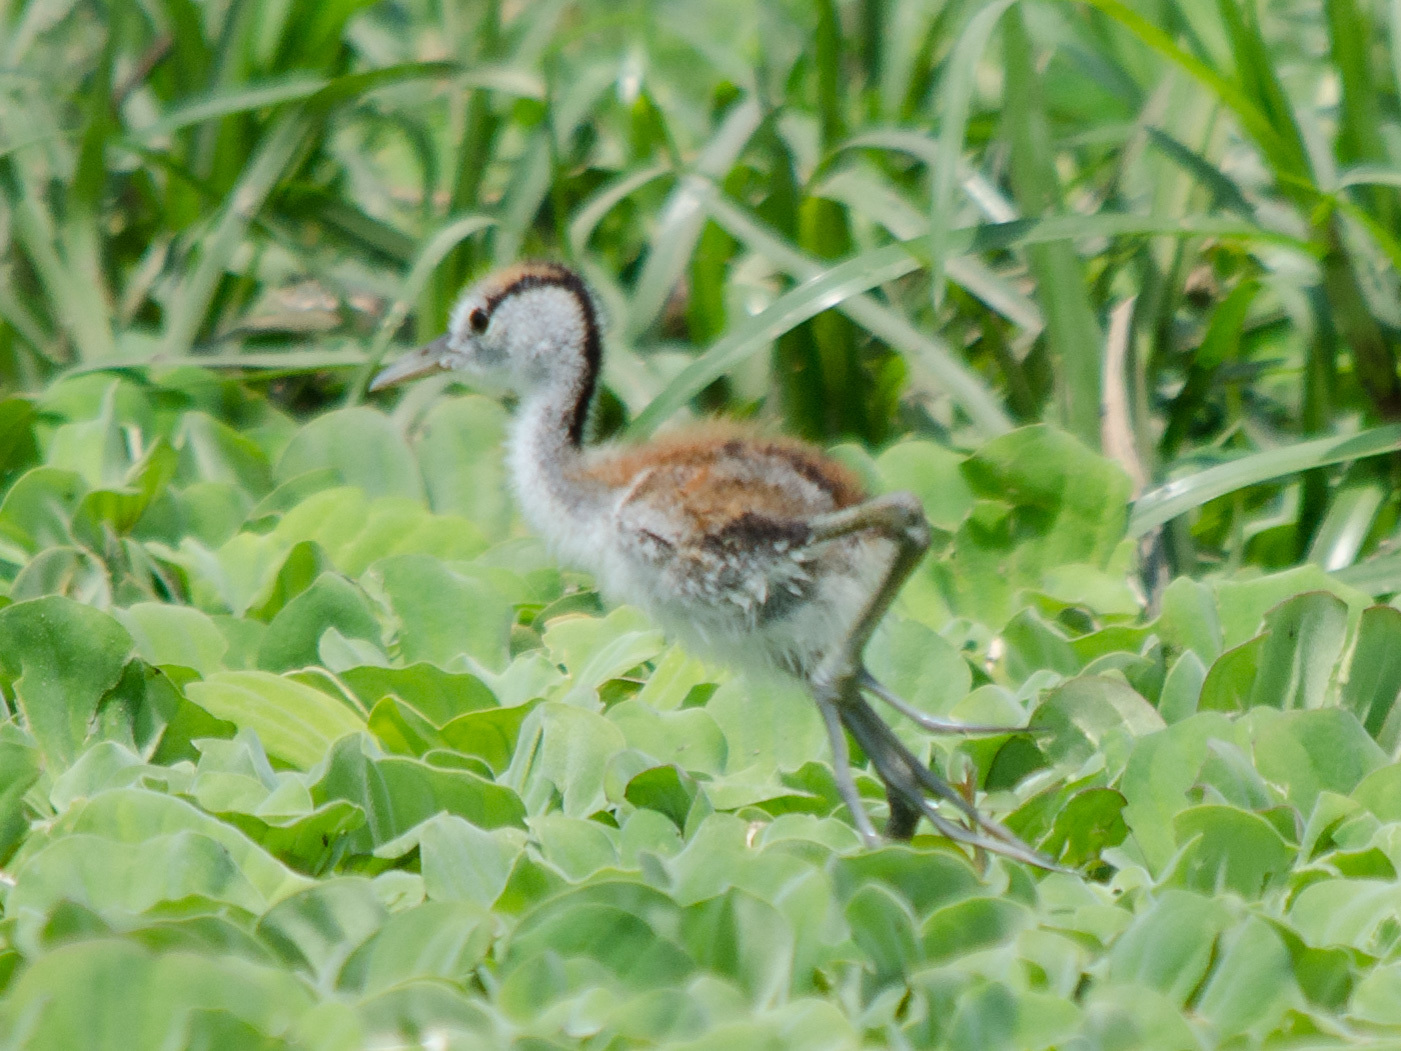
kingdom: Animalia
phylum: Chordata
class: Aves
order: Charadriiformes
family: Jacanidae
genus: Actophilornis
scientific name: Actophilornis africanus
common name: African jacana
